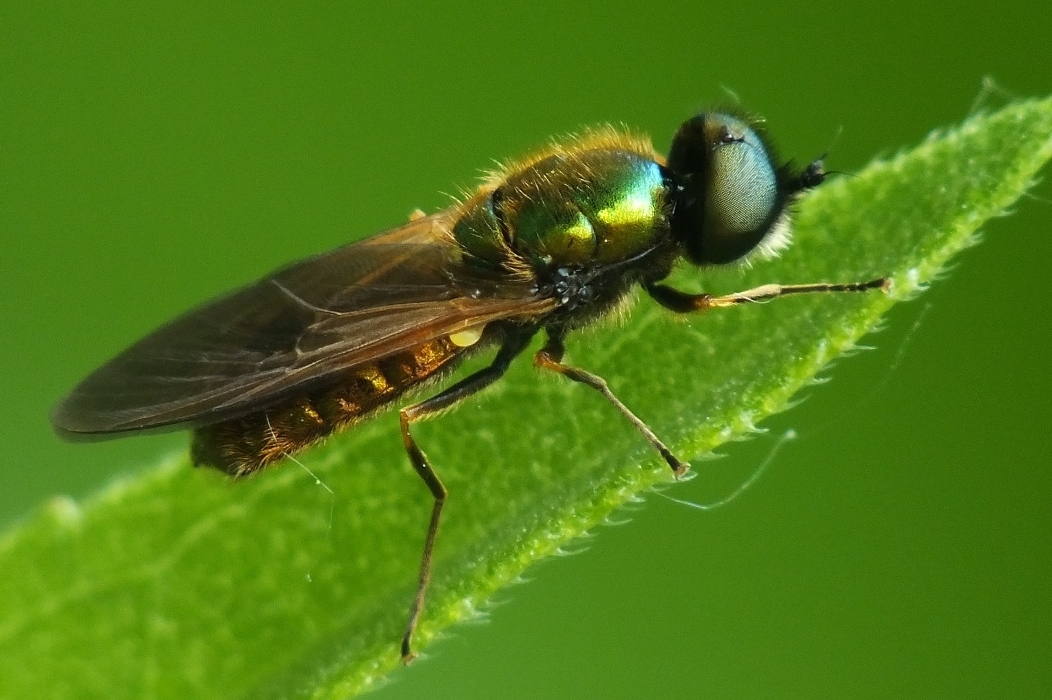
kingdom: Animalia
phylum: Arthropoda
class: Insecta
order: Diptera
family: Stratiomyidae
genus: Chloromyia
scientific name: Chloromyia formosa
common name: Soldier fly
